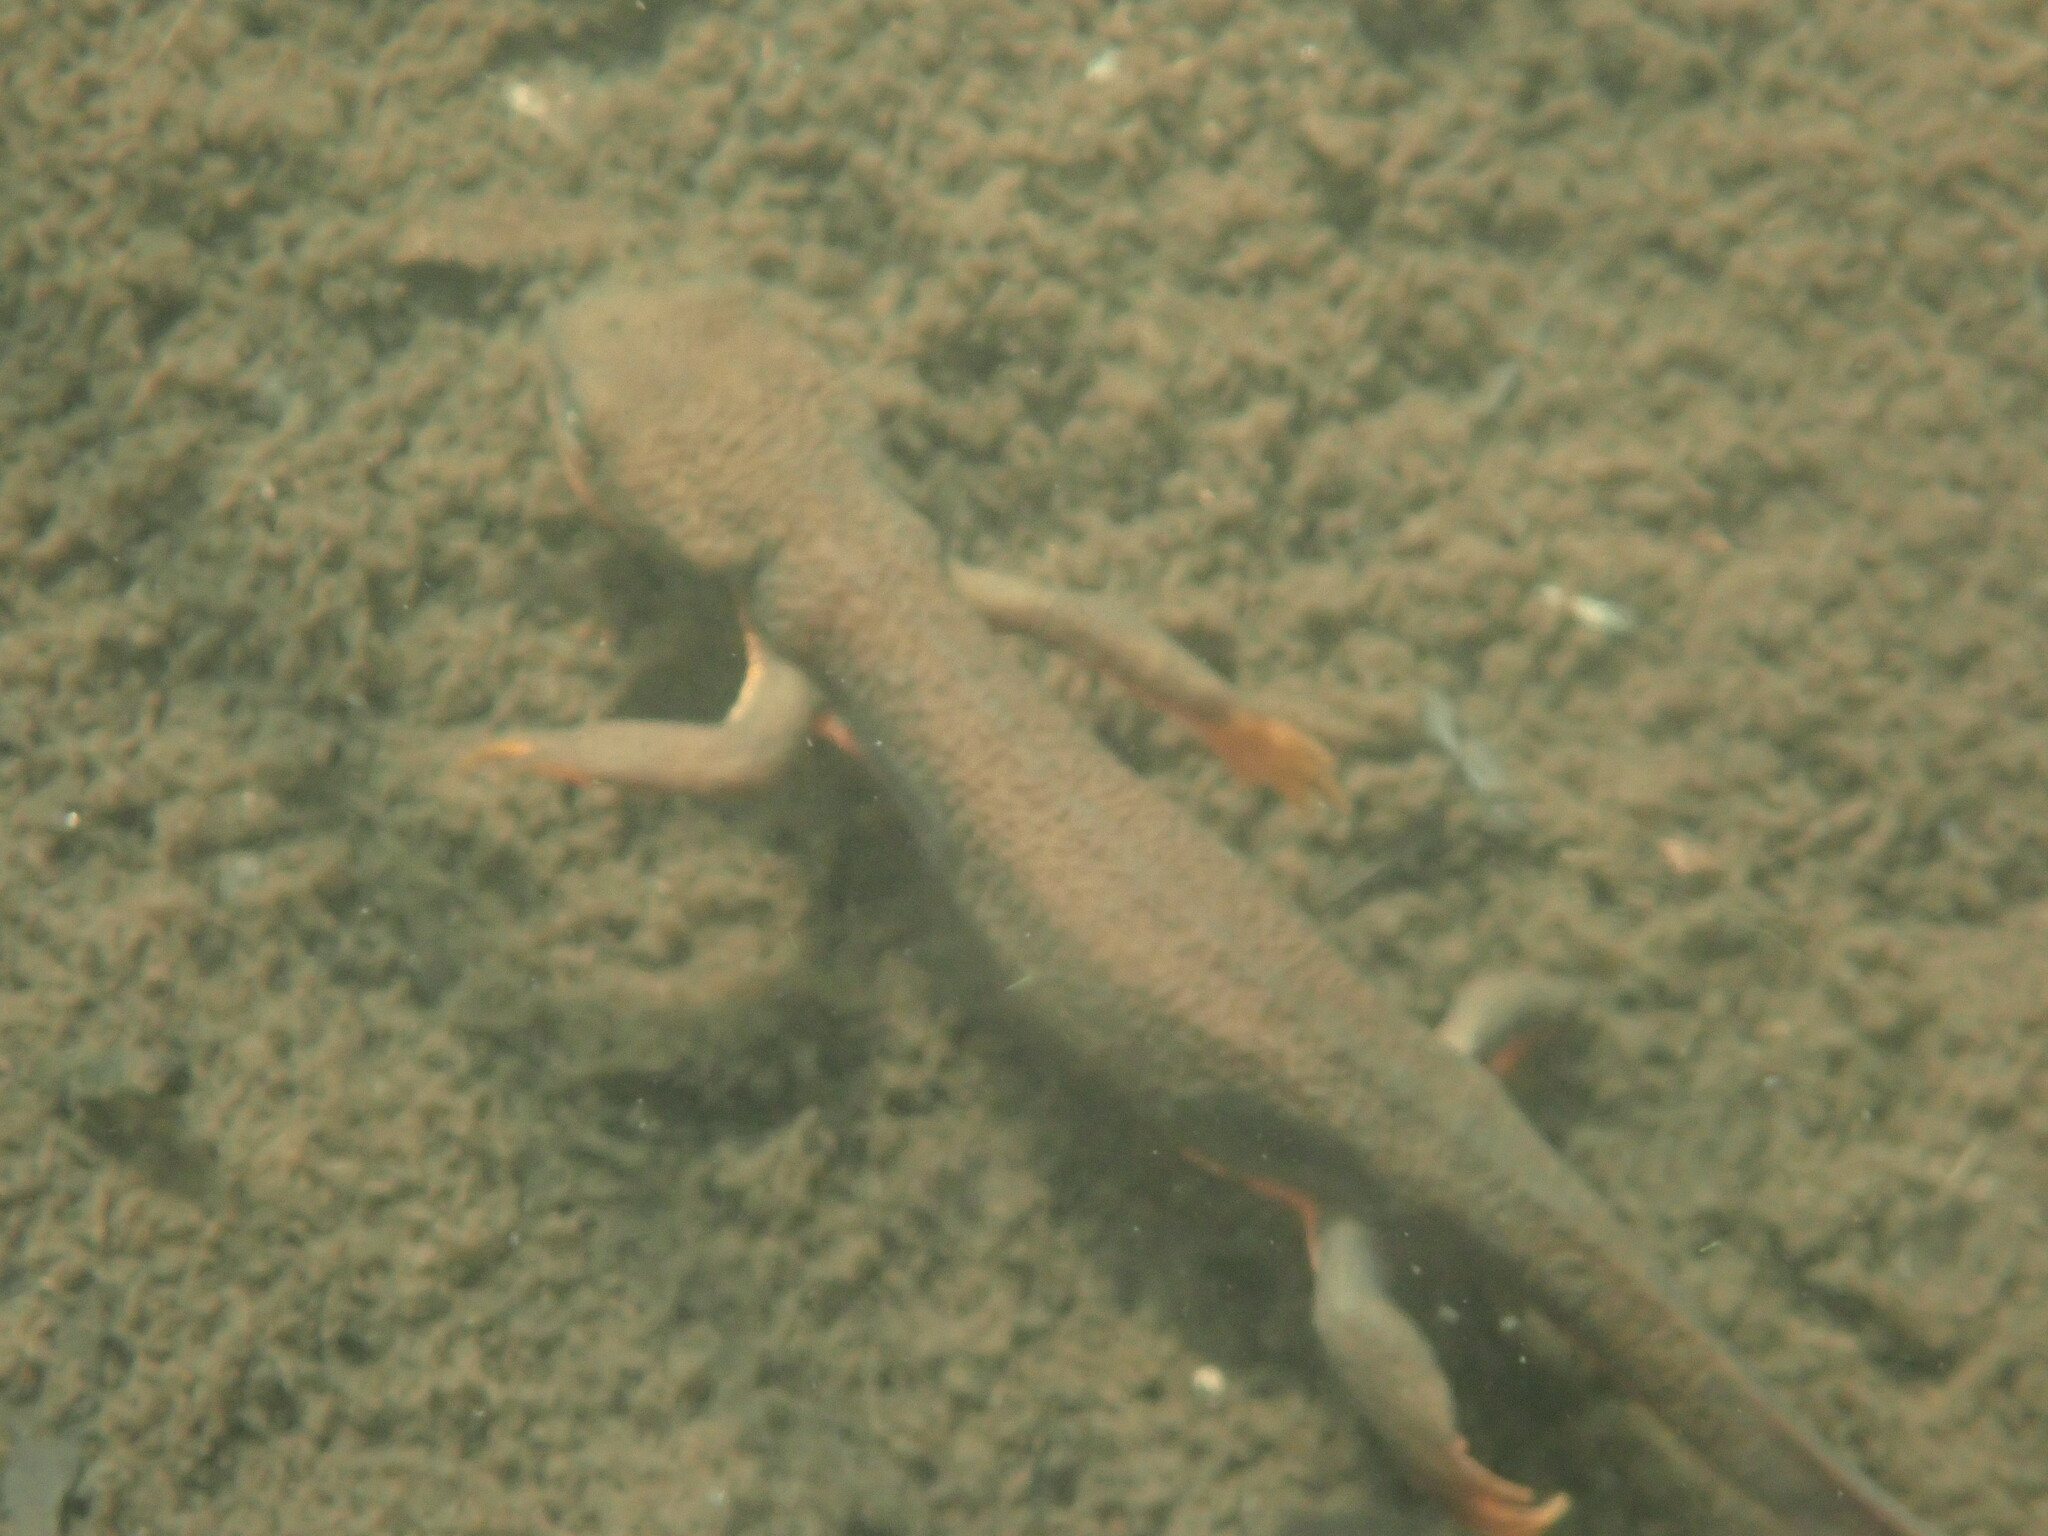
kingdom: Animalia
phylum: Chordata
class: Amphibia
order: Caudata
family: Salamandridae
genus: Taricha
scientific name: Taricha granulosa
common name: Roughskin newt
